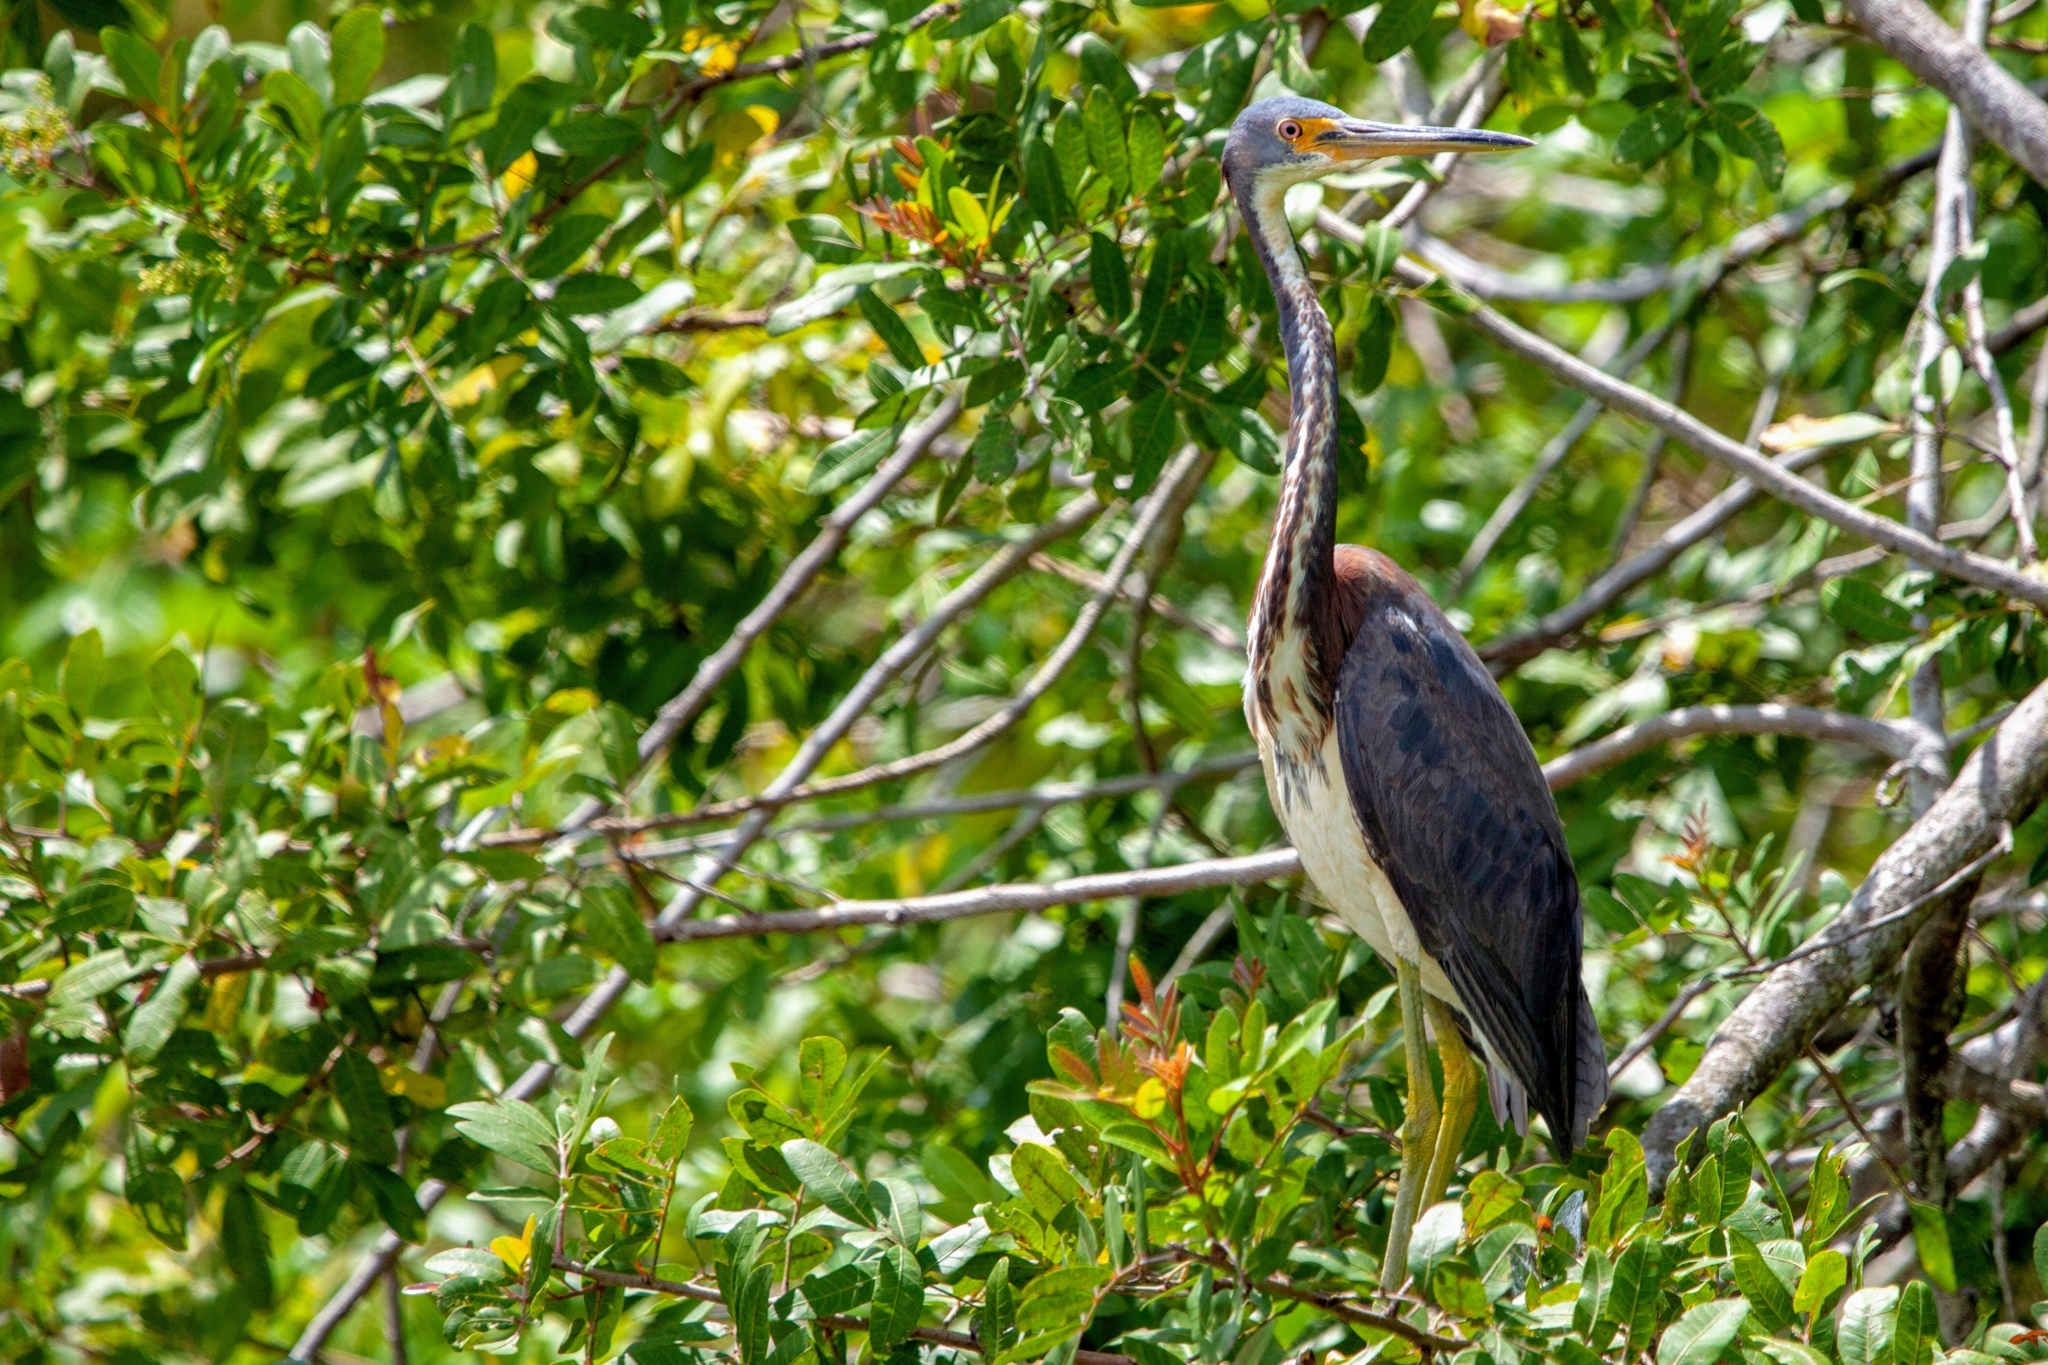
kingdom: Animalia
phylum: Chordata
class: Aves
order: Pelecaniformes
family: Ardeidae
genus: Egretta
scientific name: Egretta tricolor
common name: Tricolored heron
